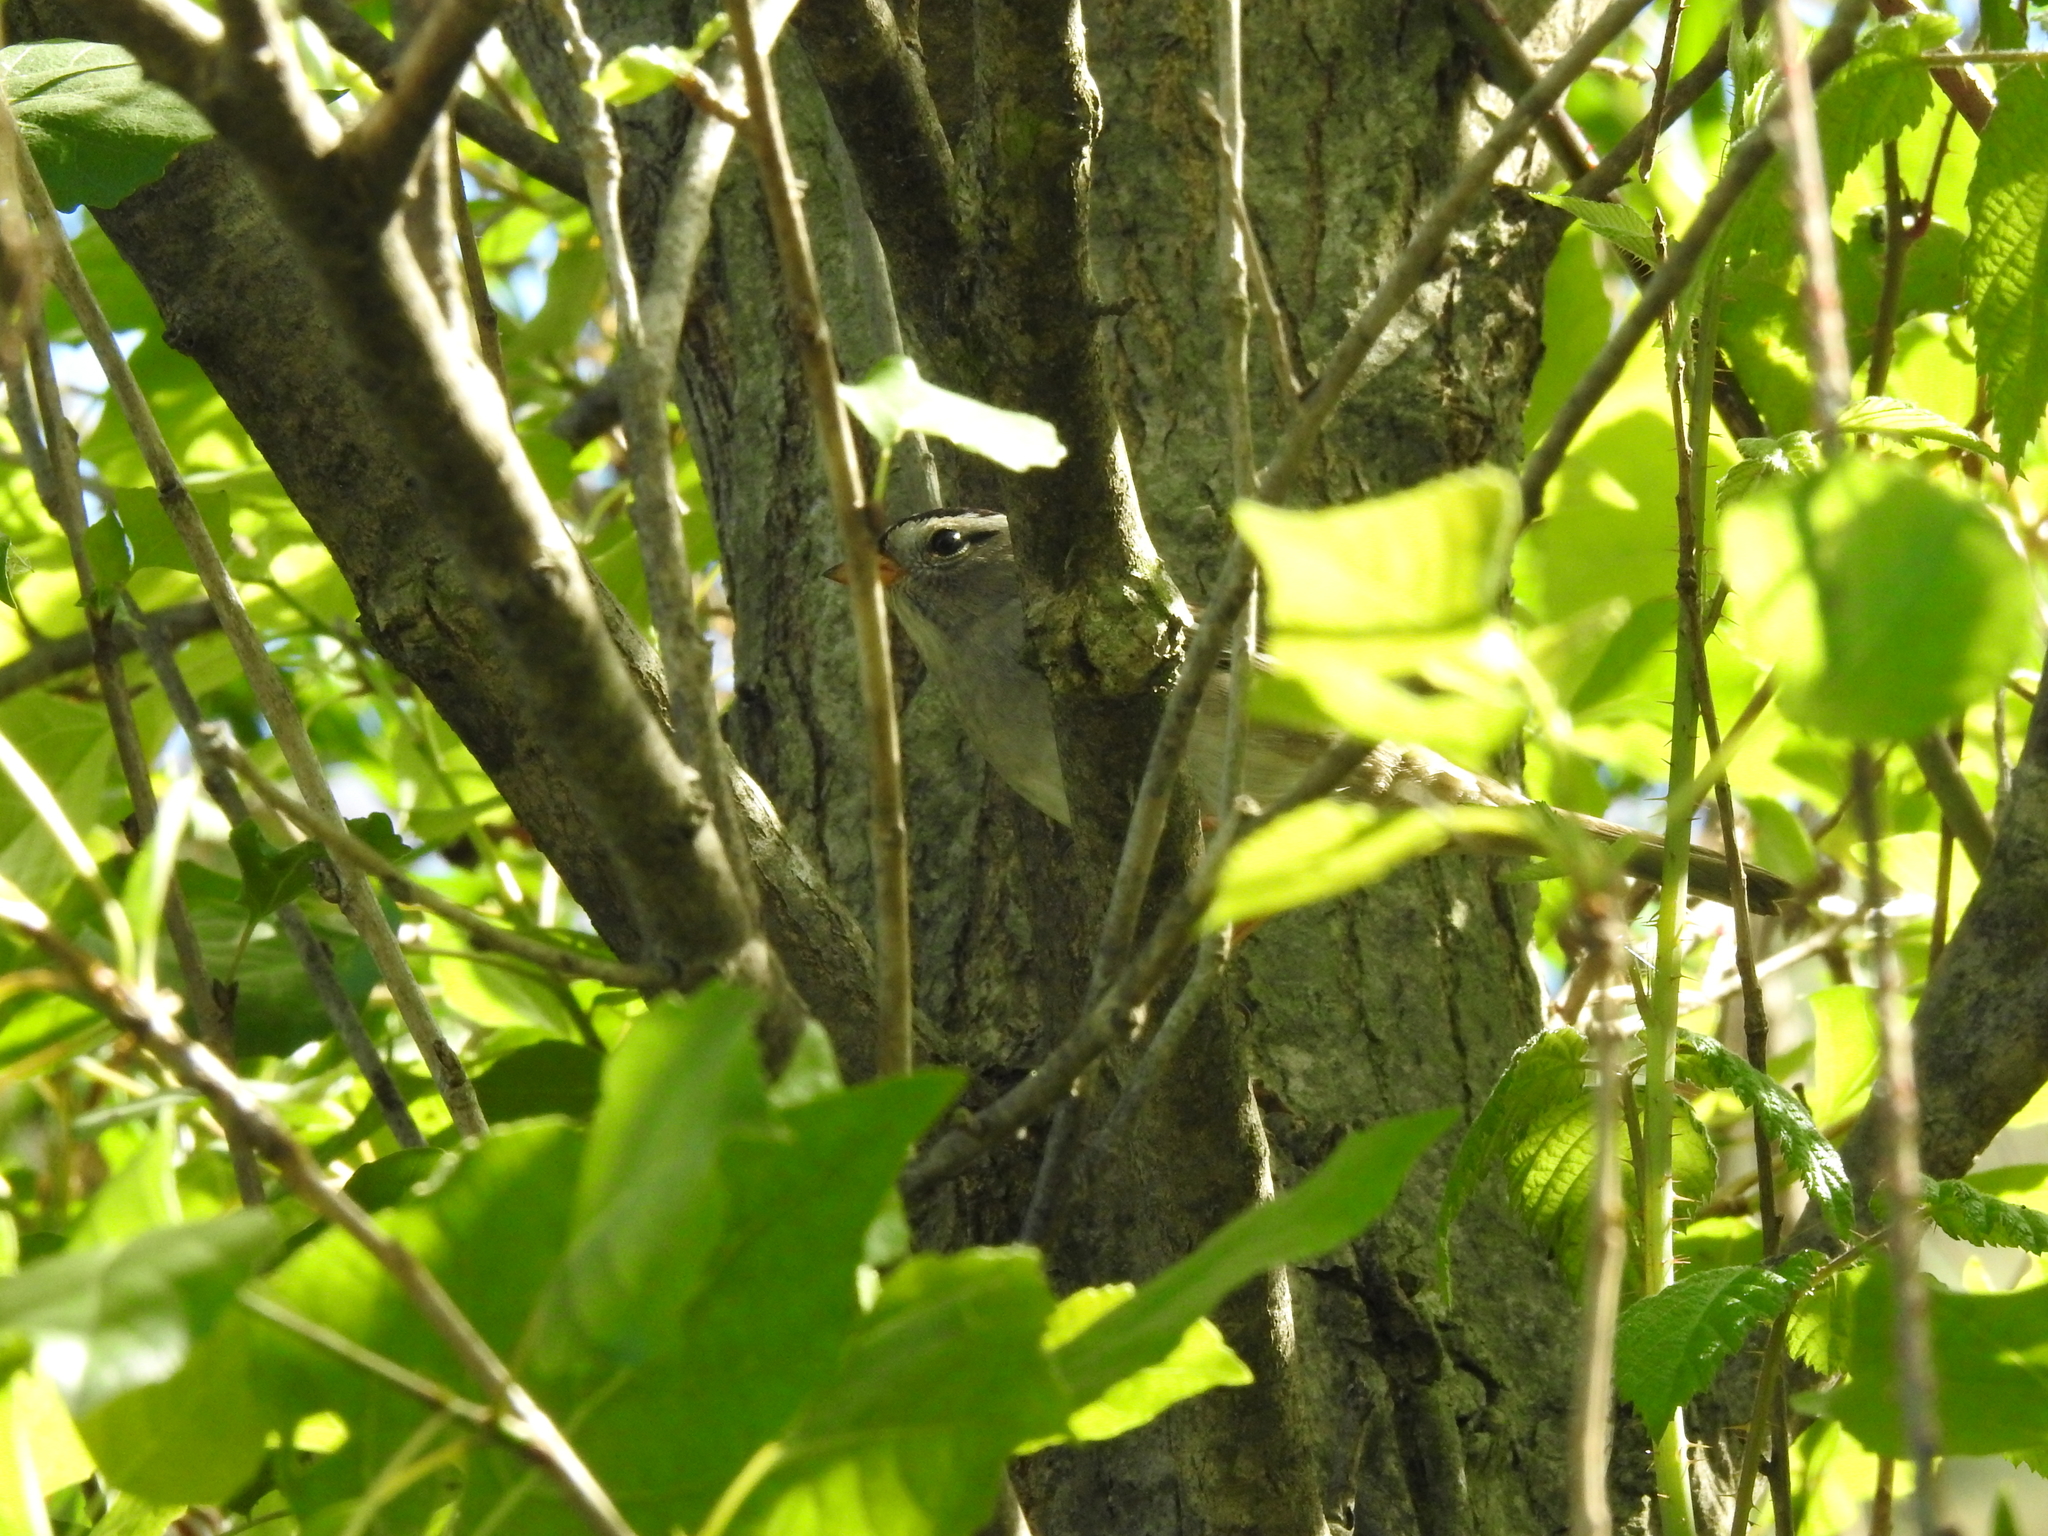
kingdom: Animalia
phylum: Chordata
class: Aves
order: Passeriformes
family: Passerellidae
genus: Zonotrichia
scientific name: Zonotrichia leucophrys
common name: White-crowned sparrow
